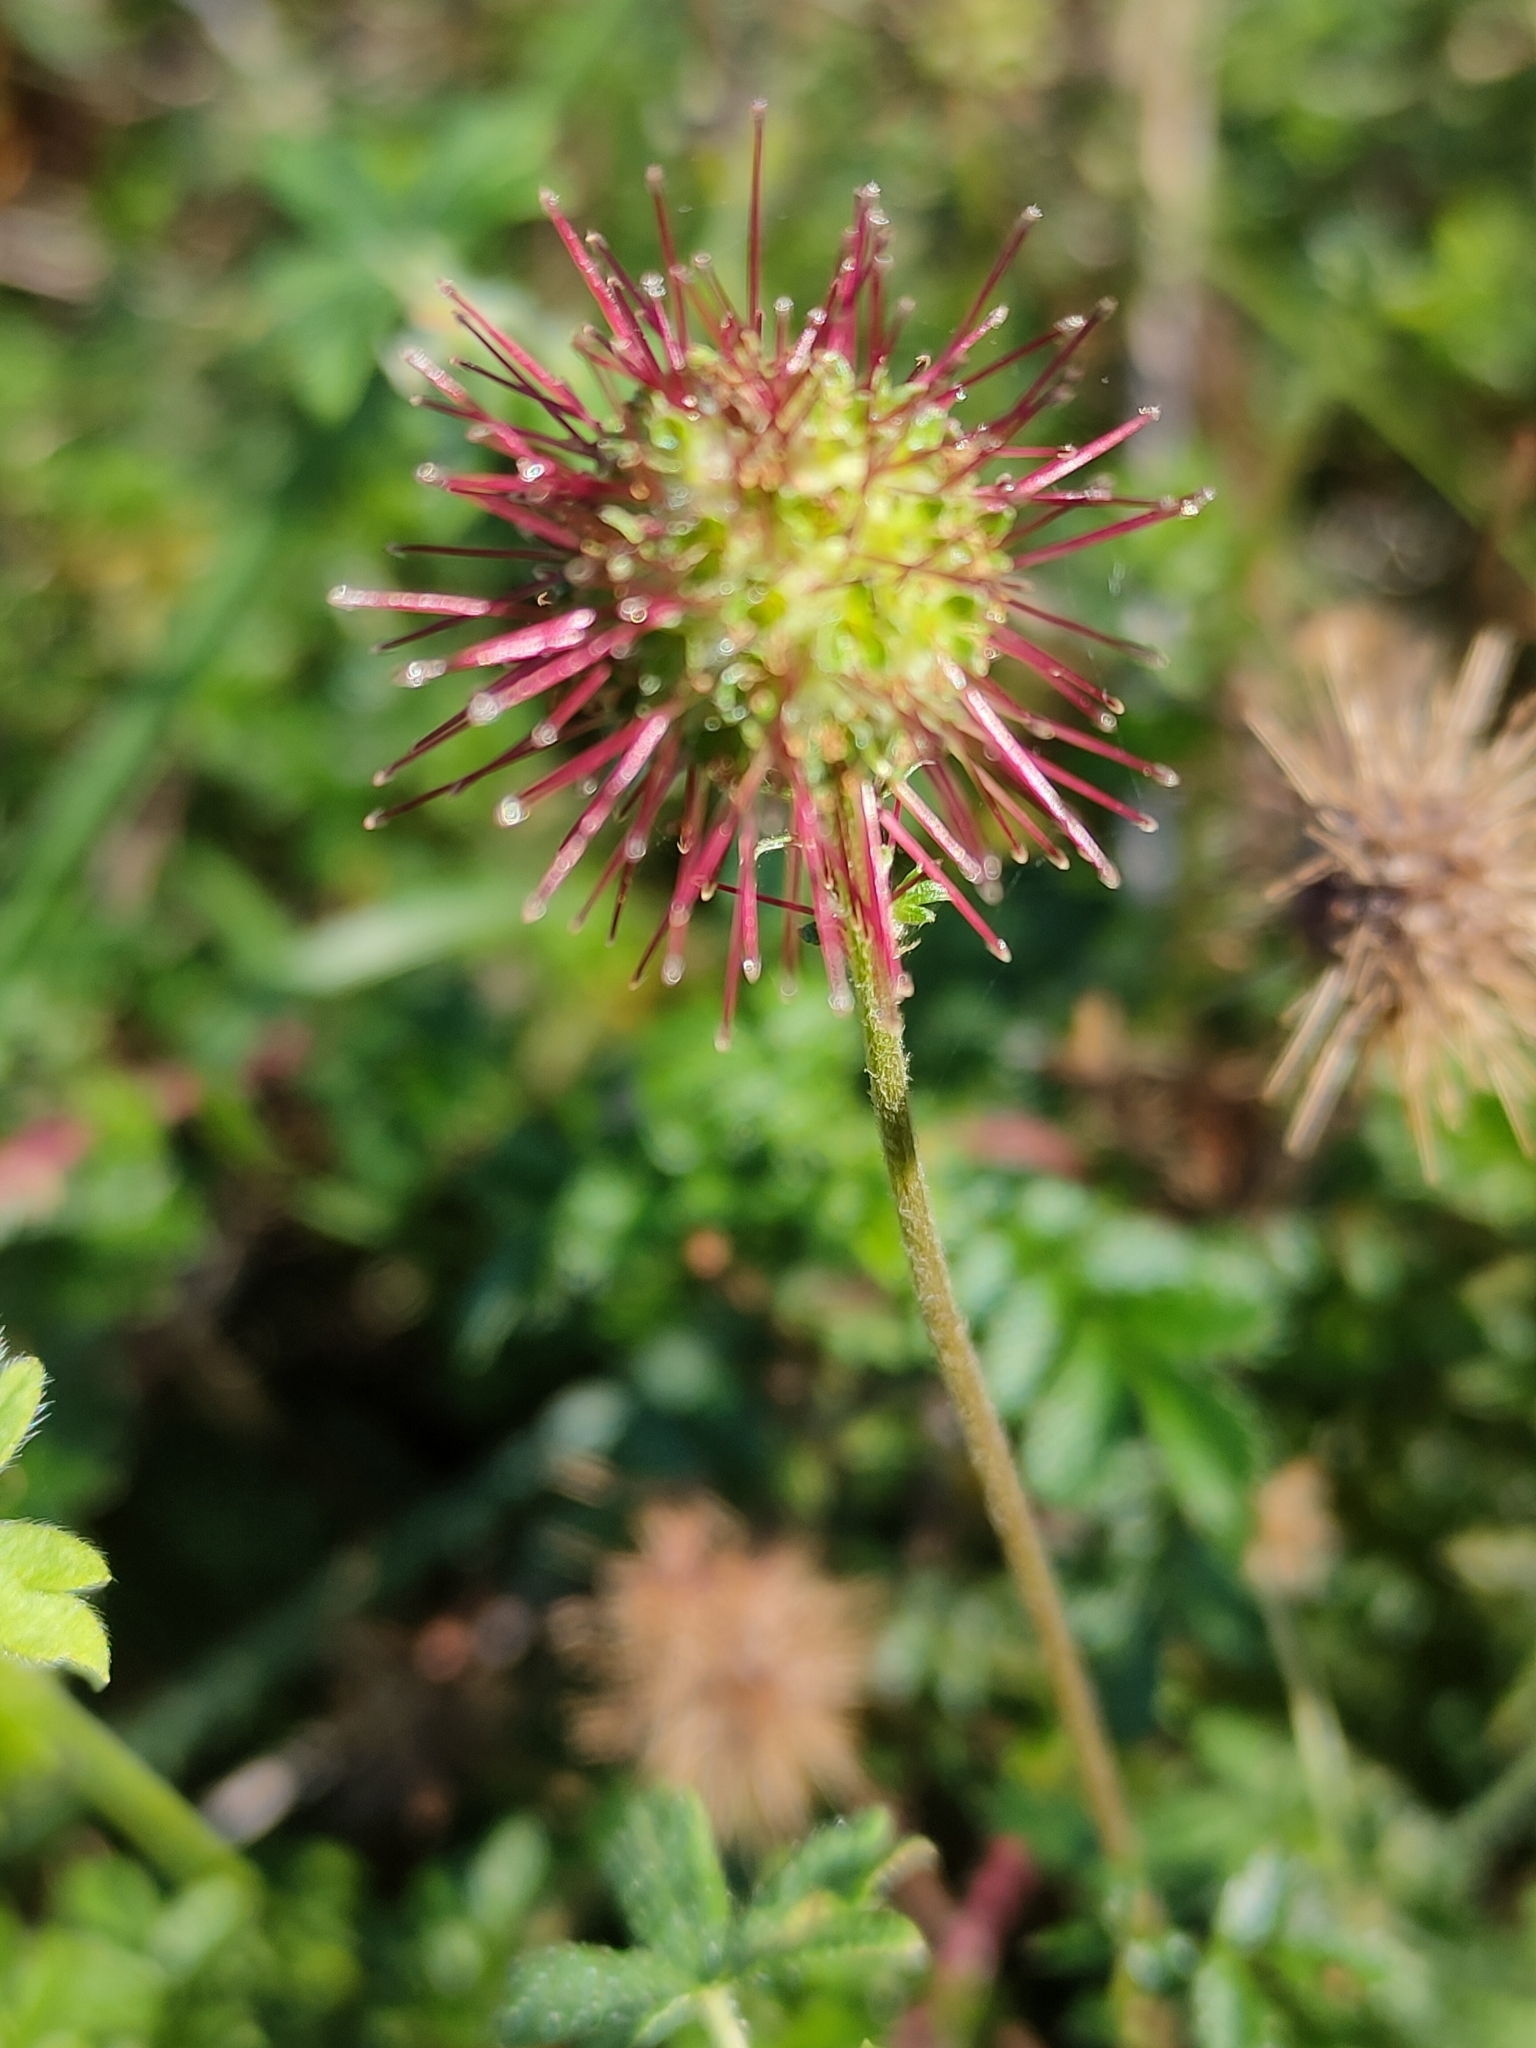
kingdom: Plantae
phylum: Tracheophyta
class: Magnoliopsida
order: Rosales
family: Rosaceae
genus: Acaena
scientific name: Acaena novae-zelandiae
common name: Pirri-pirri-bur
